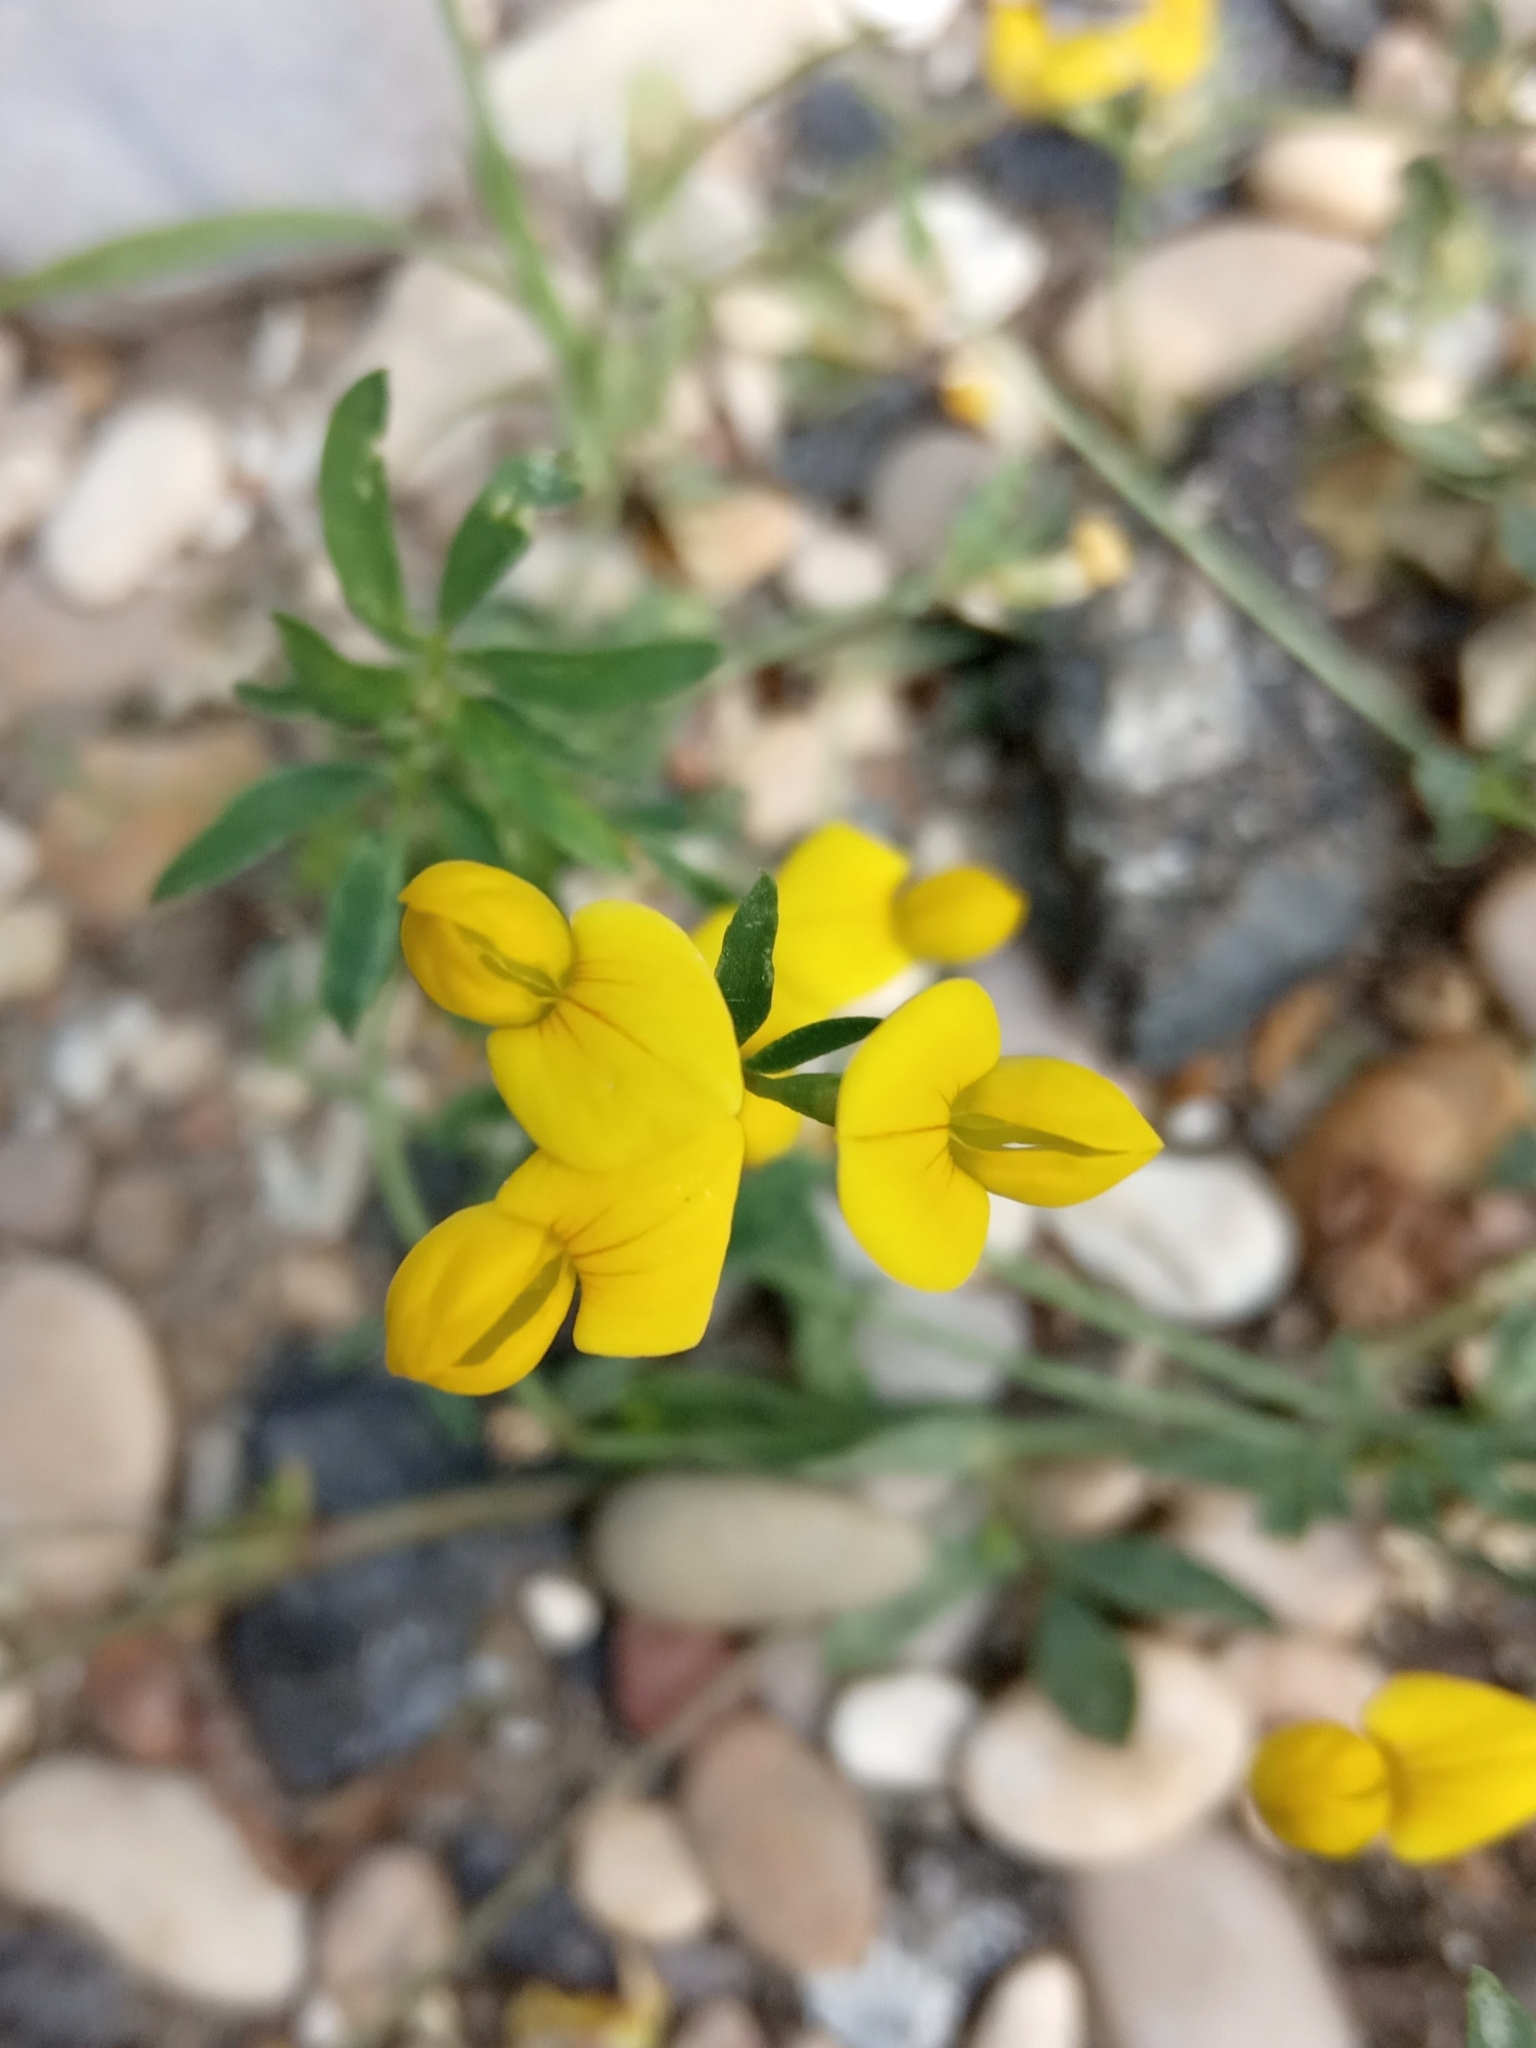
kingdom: Plantae
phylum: Tracheophyta
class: Magnoliopsida
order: Fabales
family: Fabaceae
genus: Lotus
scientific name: Lotus corniculatus
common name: Common bird's-foot-trefoil
